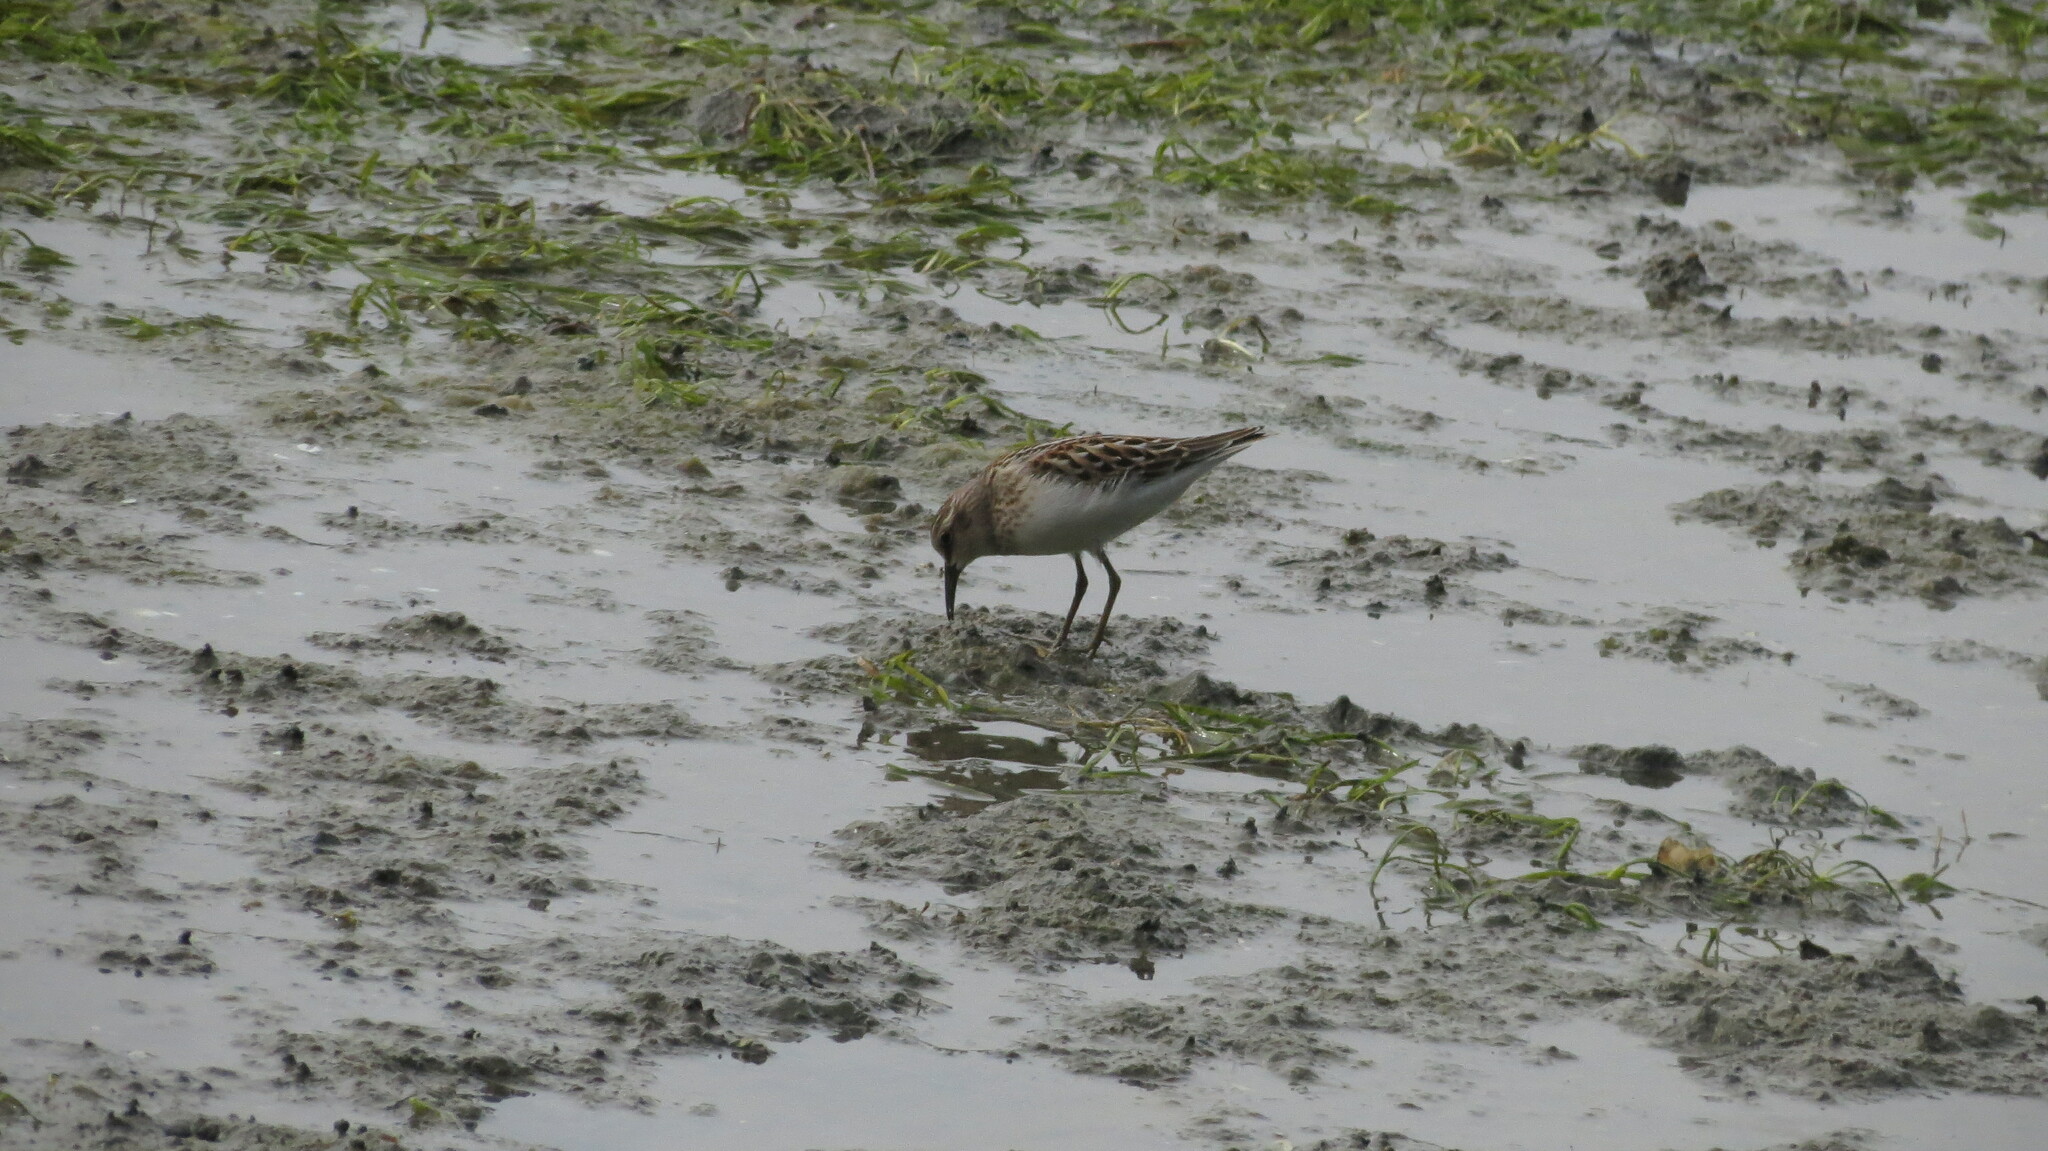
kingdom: Animalia
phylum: Chordata
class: Aves
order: Charadriiformes
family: Scolopacidae
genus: Calidris
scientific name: Calidris minutilla
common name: Least sandpiper
